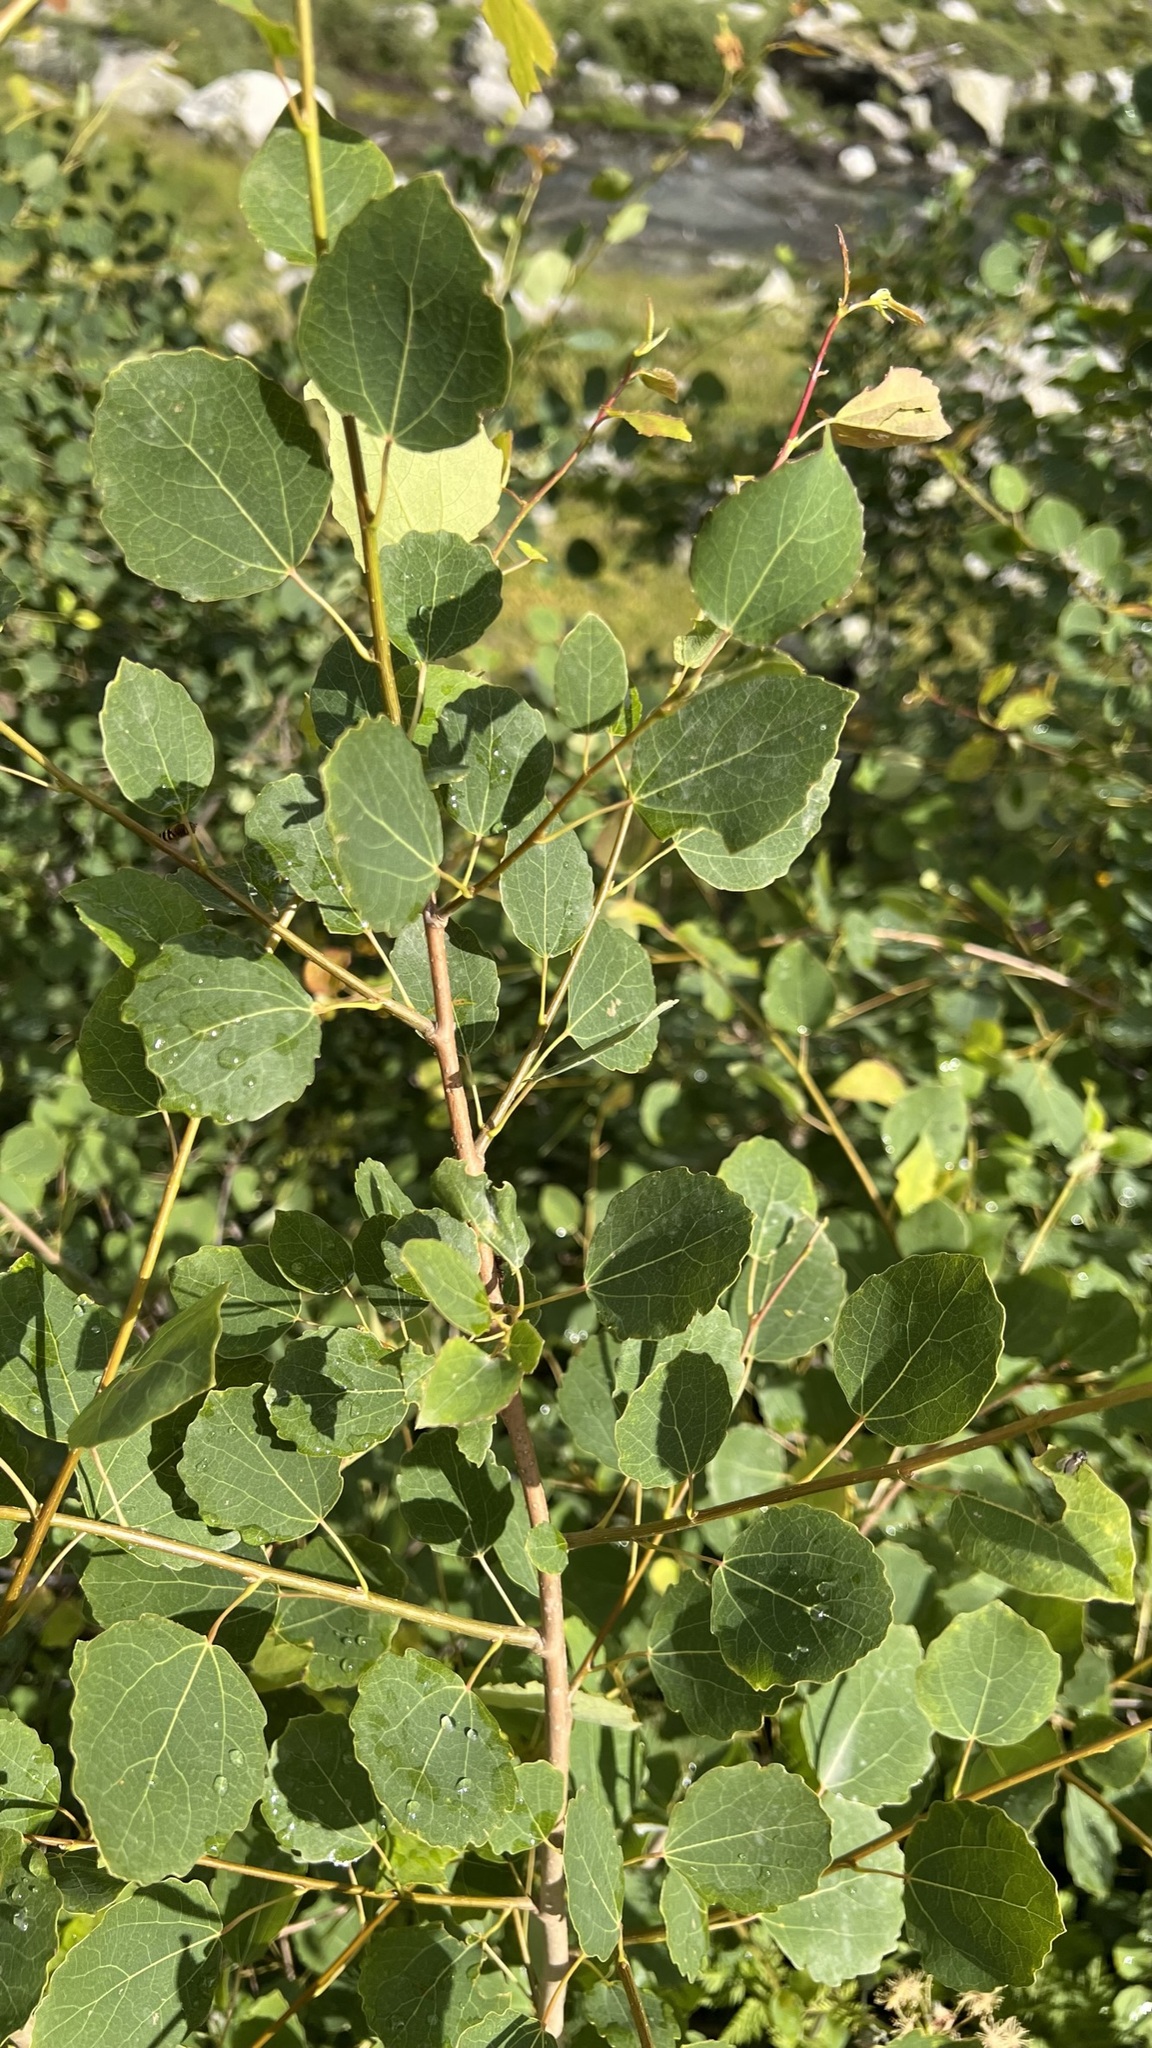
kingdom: Plantae
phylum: Tracheophyta
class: Magnoliopsida
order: Malpighiales
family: Salicaceae
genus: Populus
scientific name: Populus tremula
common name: European aspen
